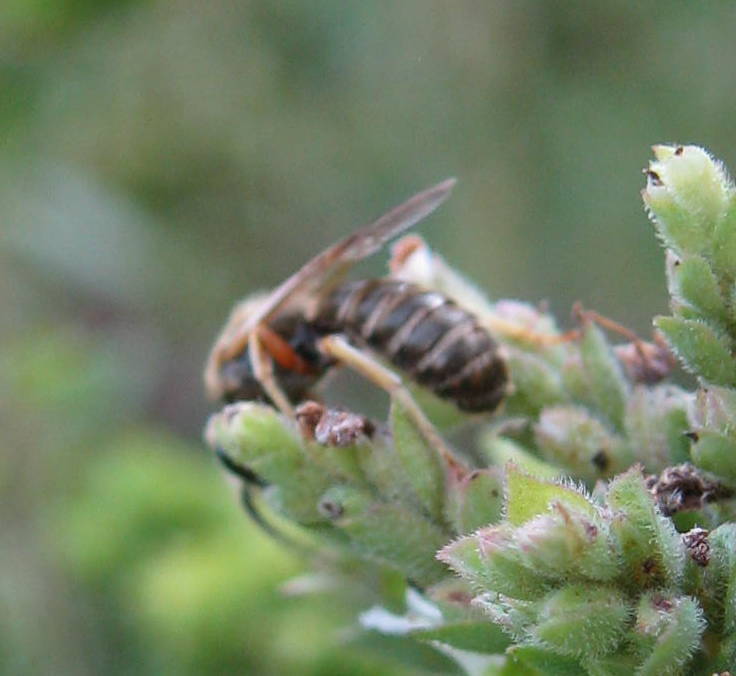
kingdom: Animalia
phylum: Arthropoda
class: Insecta
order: Hymenoptera
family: Halictidae
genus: Halictus
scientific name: Halictus confusus
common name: Southern bronze furrow bee
